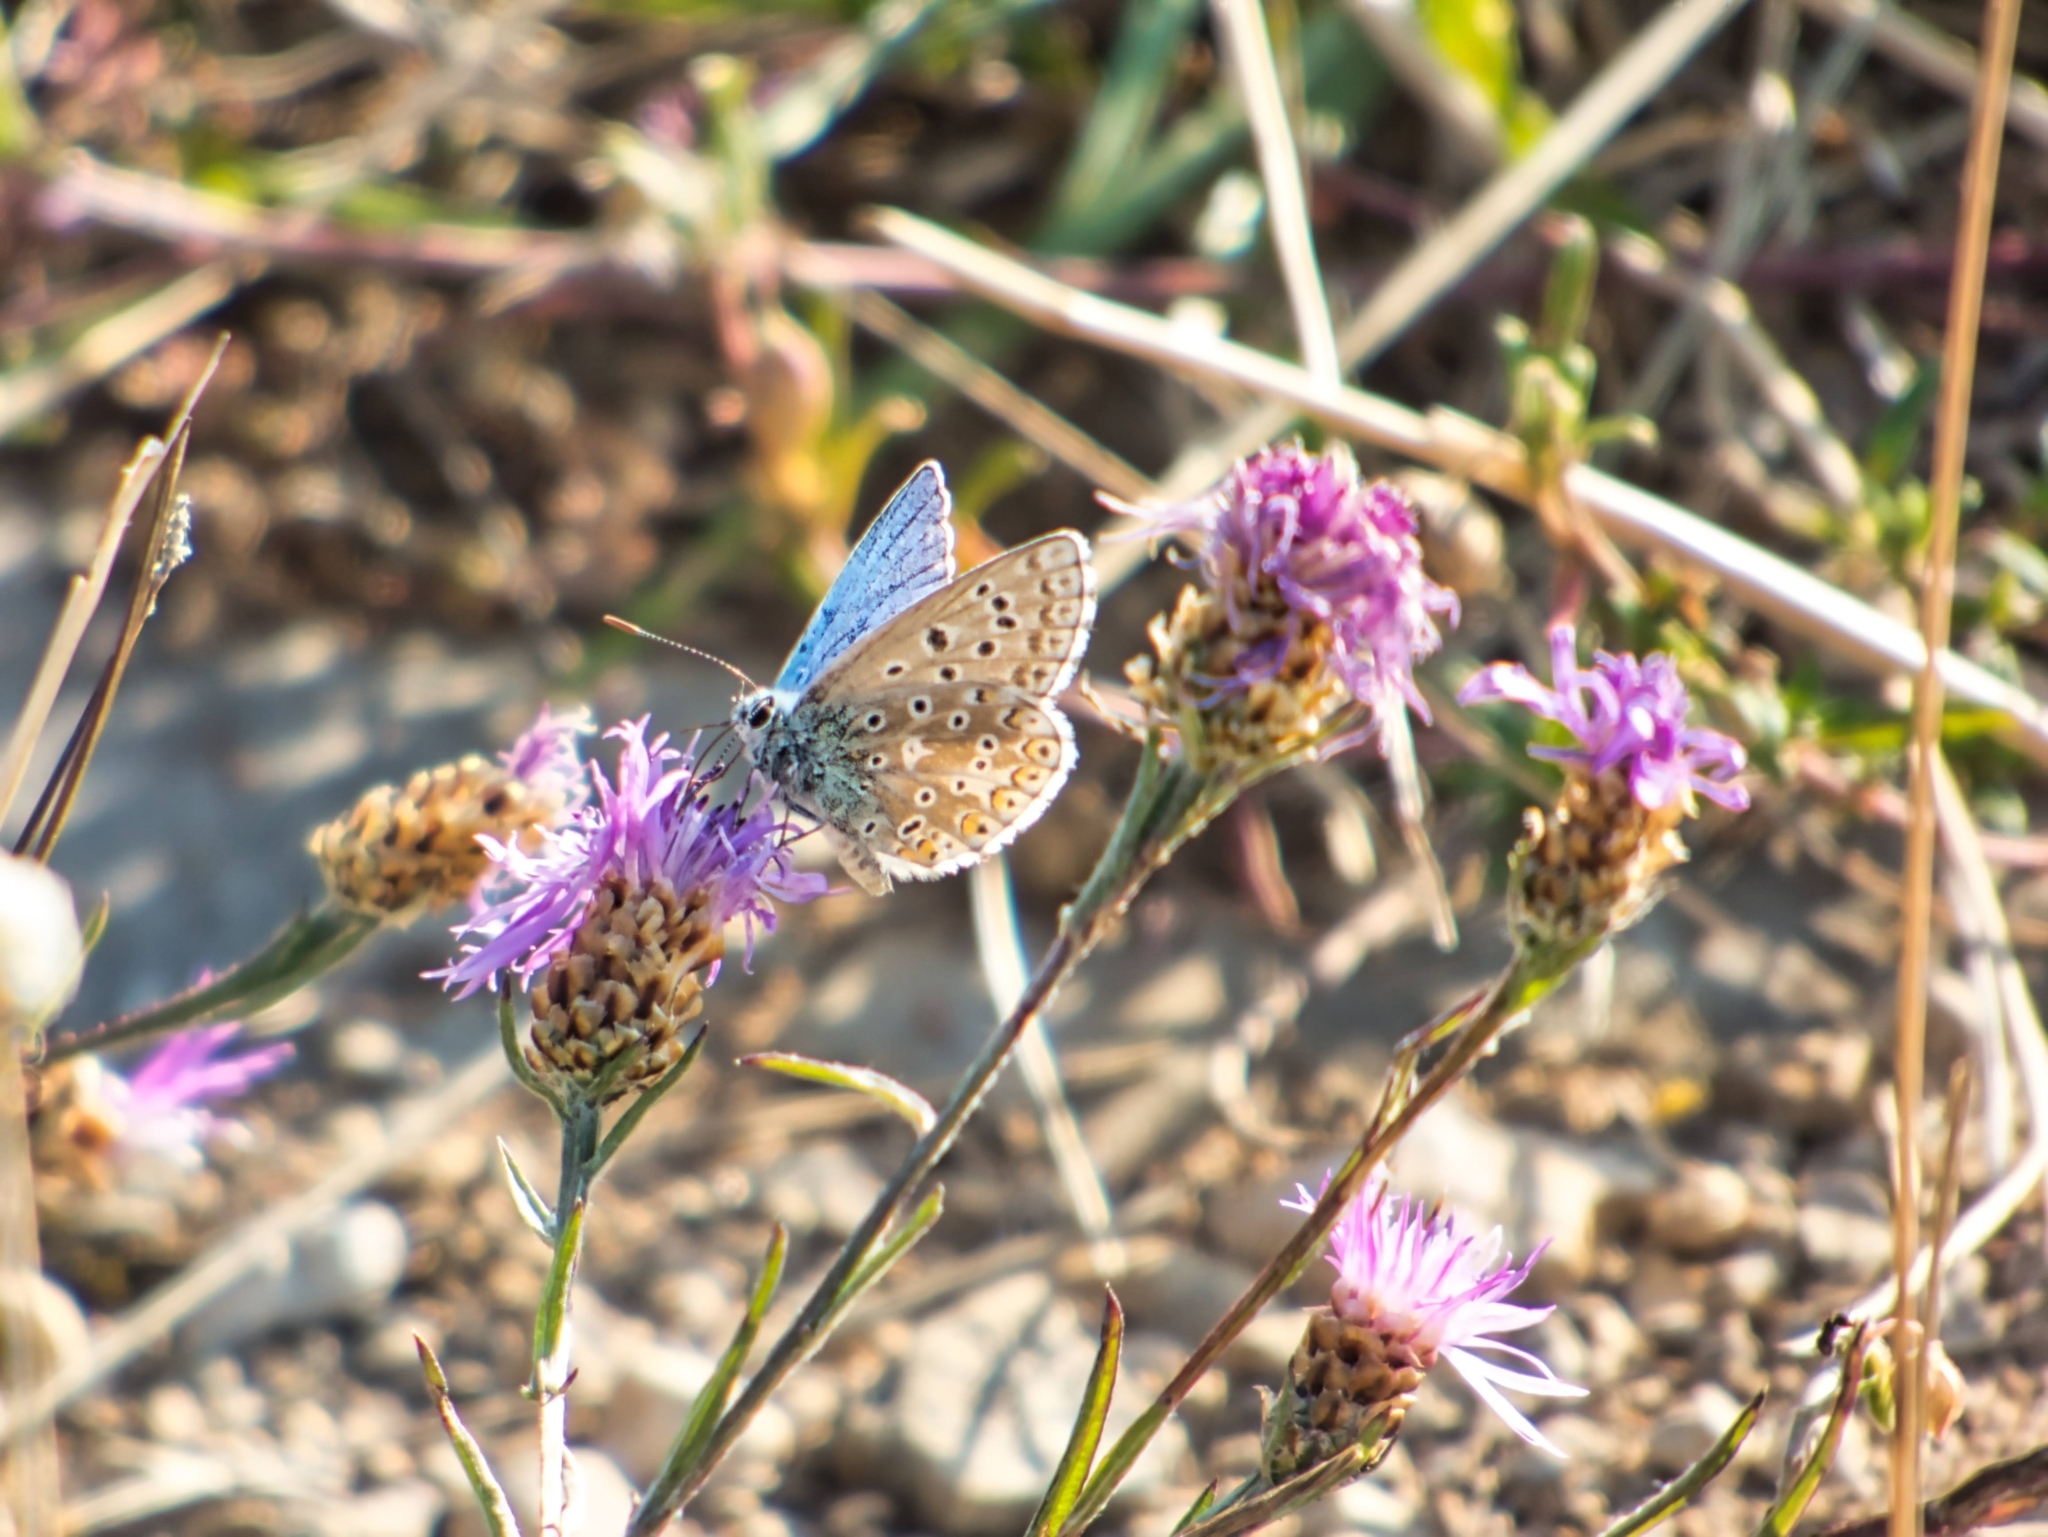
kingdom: Animalia
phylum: Arthropoda
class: Insecta
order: Lepidoptera
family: Lycaenidae
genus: Lysandra
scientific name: Lysandra bellargus
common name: Adonis blue
